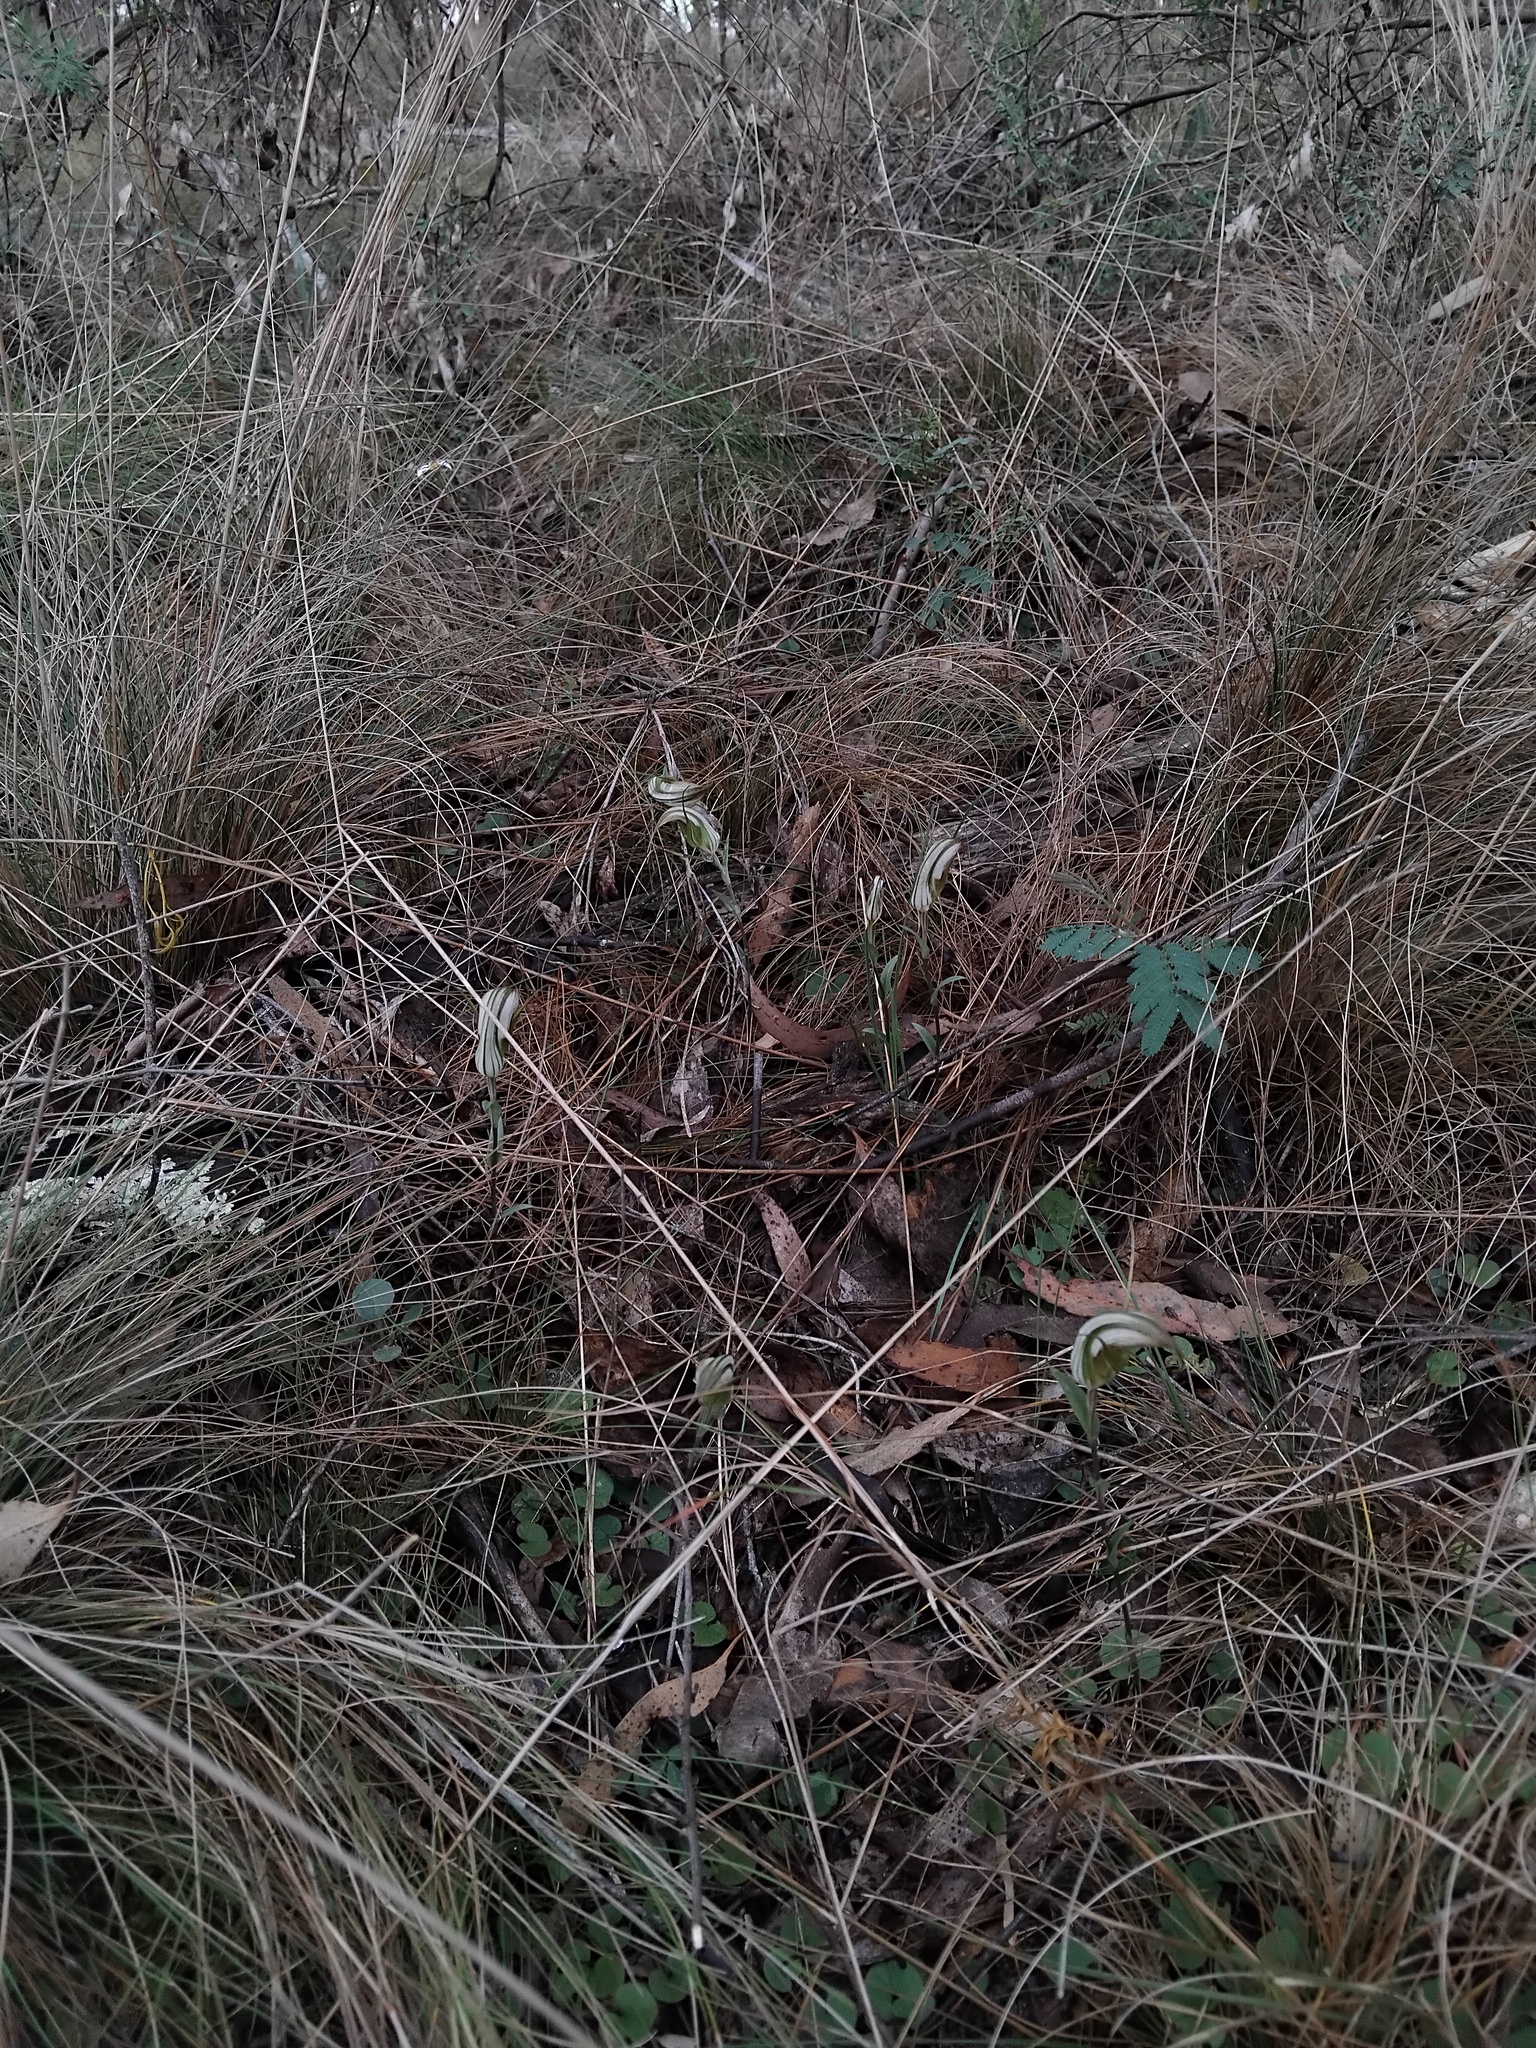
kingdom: Plantae
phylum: Tracheophyta
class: Liliopsida
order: Asparagales
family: Orchidaceae
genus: Pterostylis
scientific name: Pterostylis reflexa
